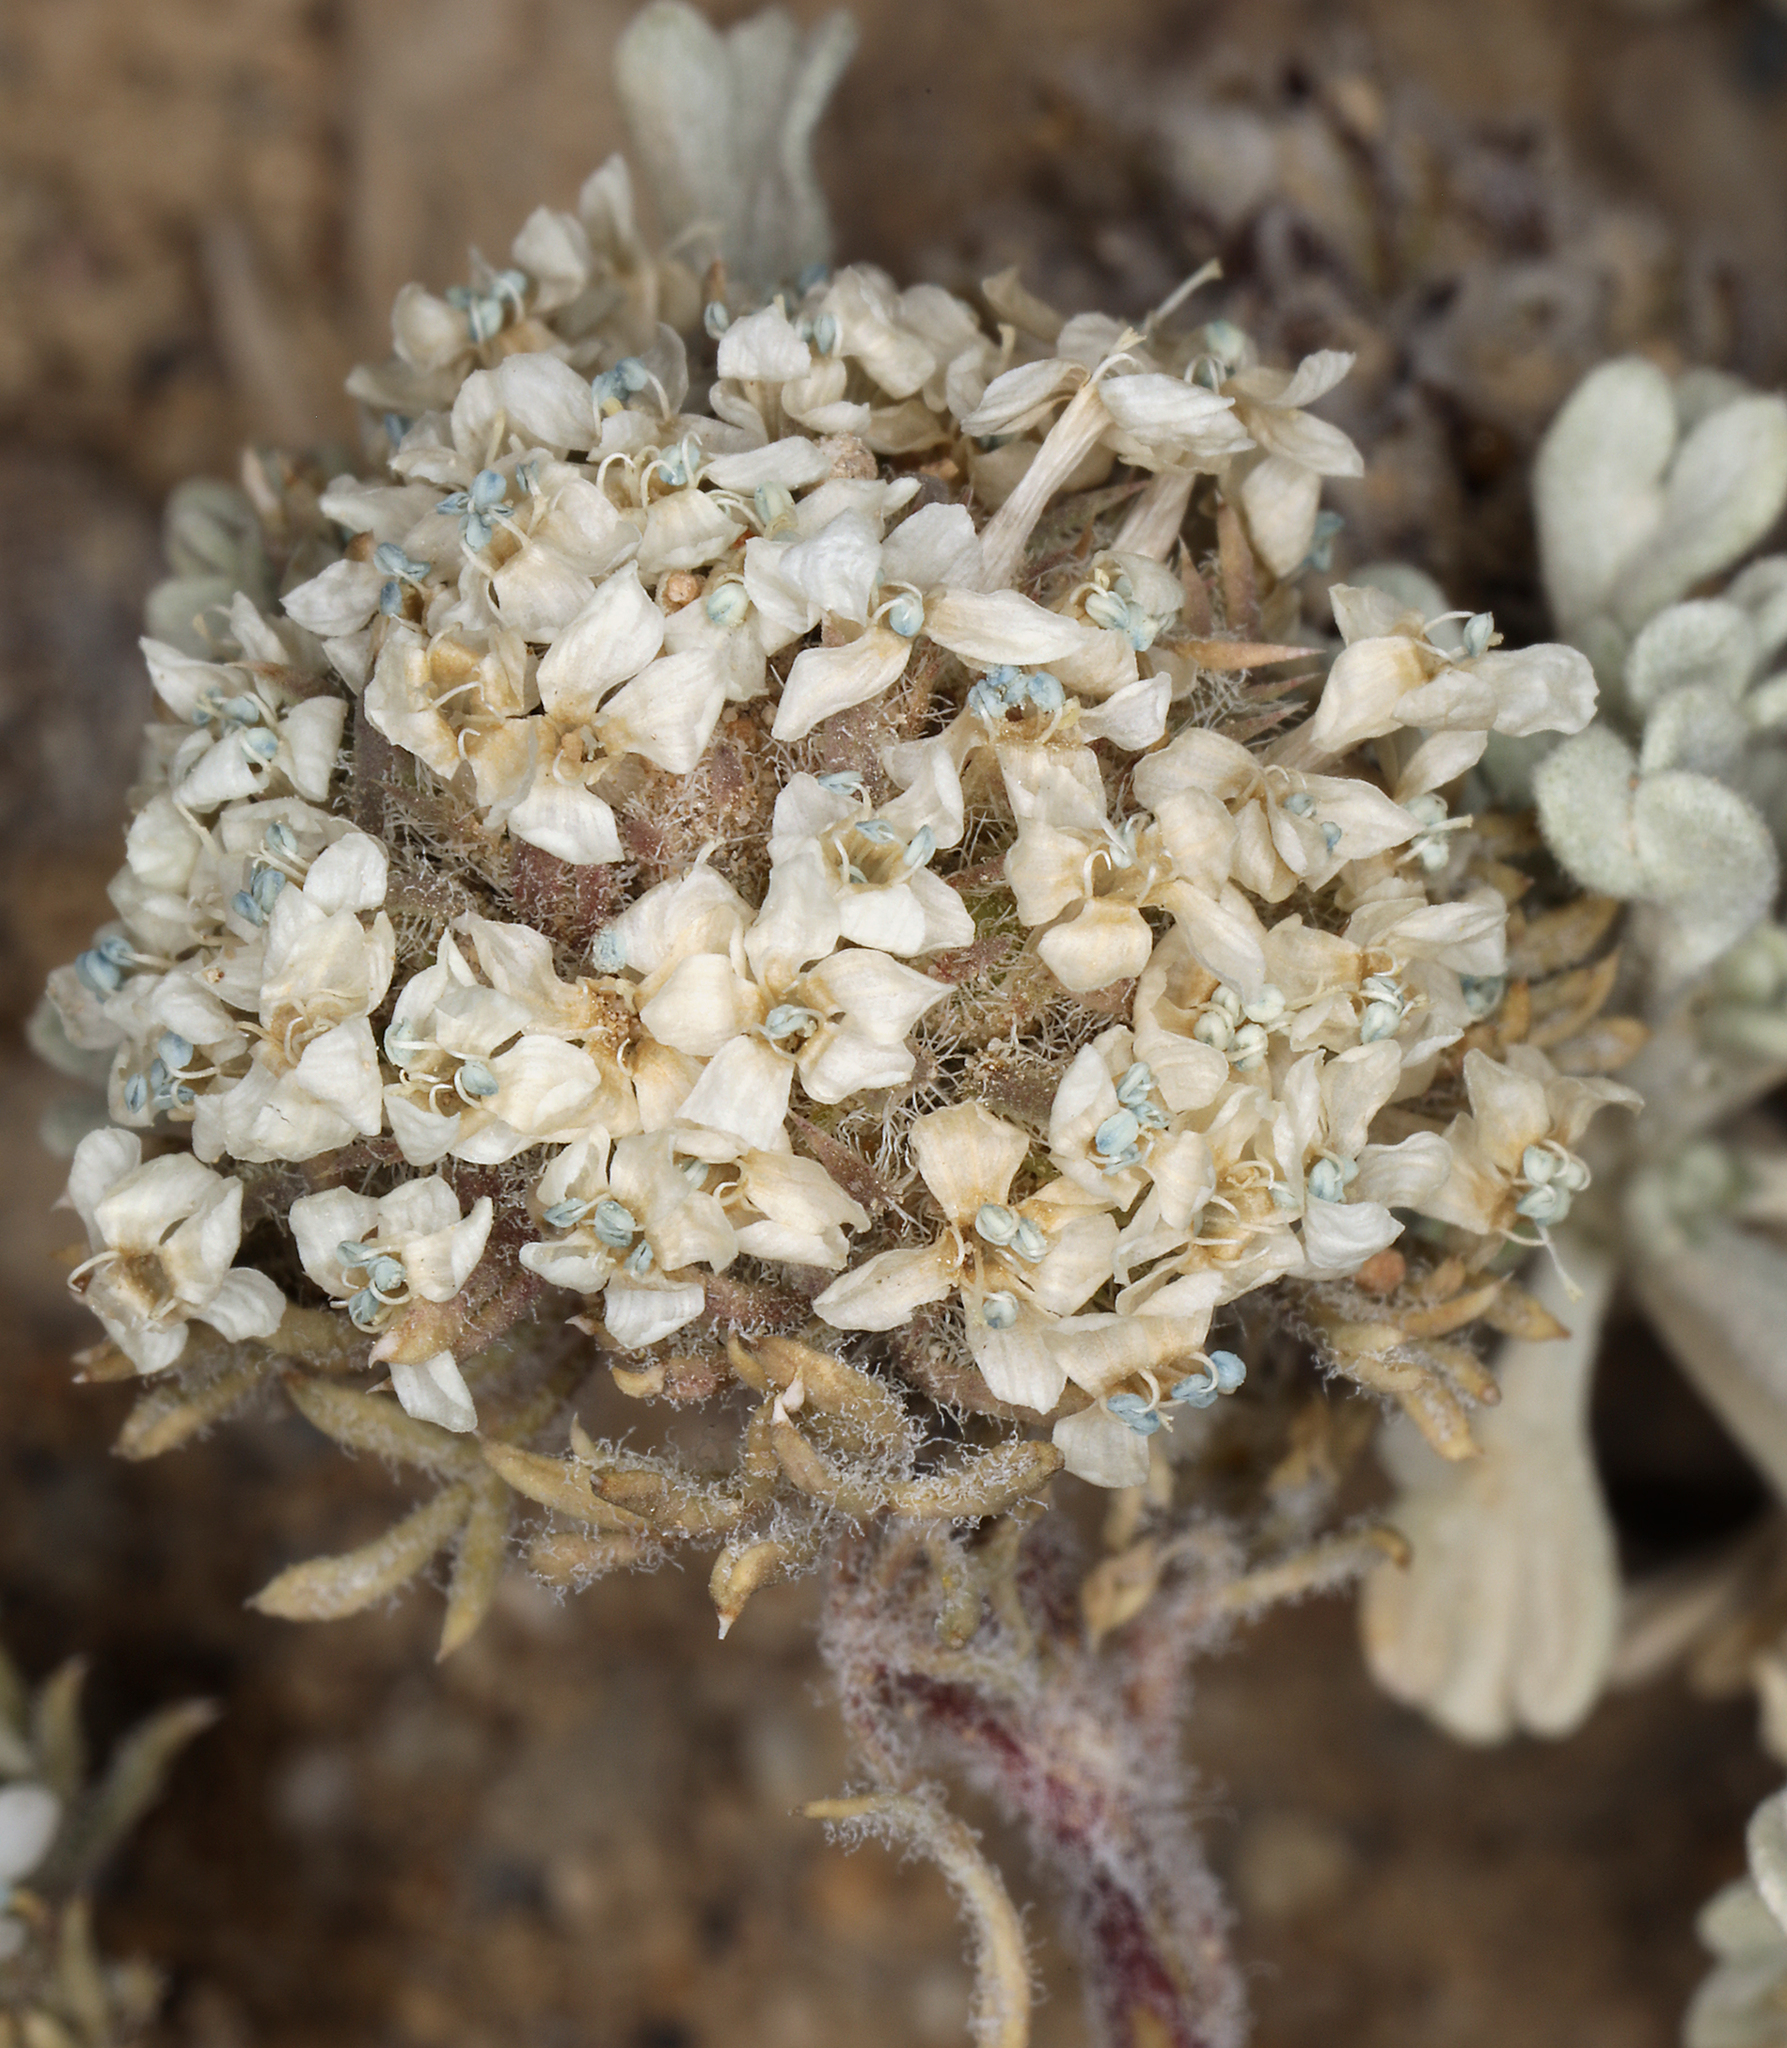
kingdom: Plantae
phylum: Tracheophyta
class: Magnoliopsida
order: Ericales
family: Polemoniaceae
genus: Ipomopsis
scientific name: Ipomopsis congesta
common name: Ball-head gilia
